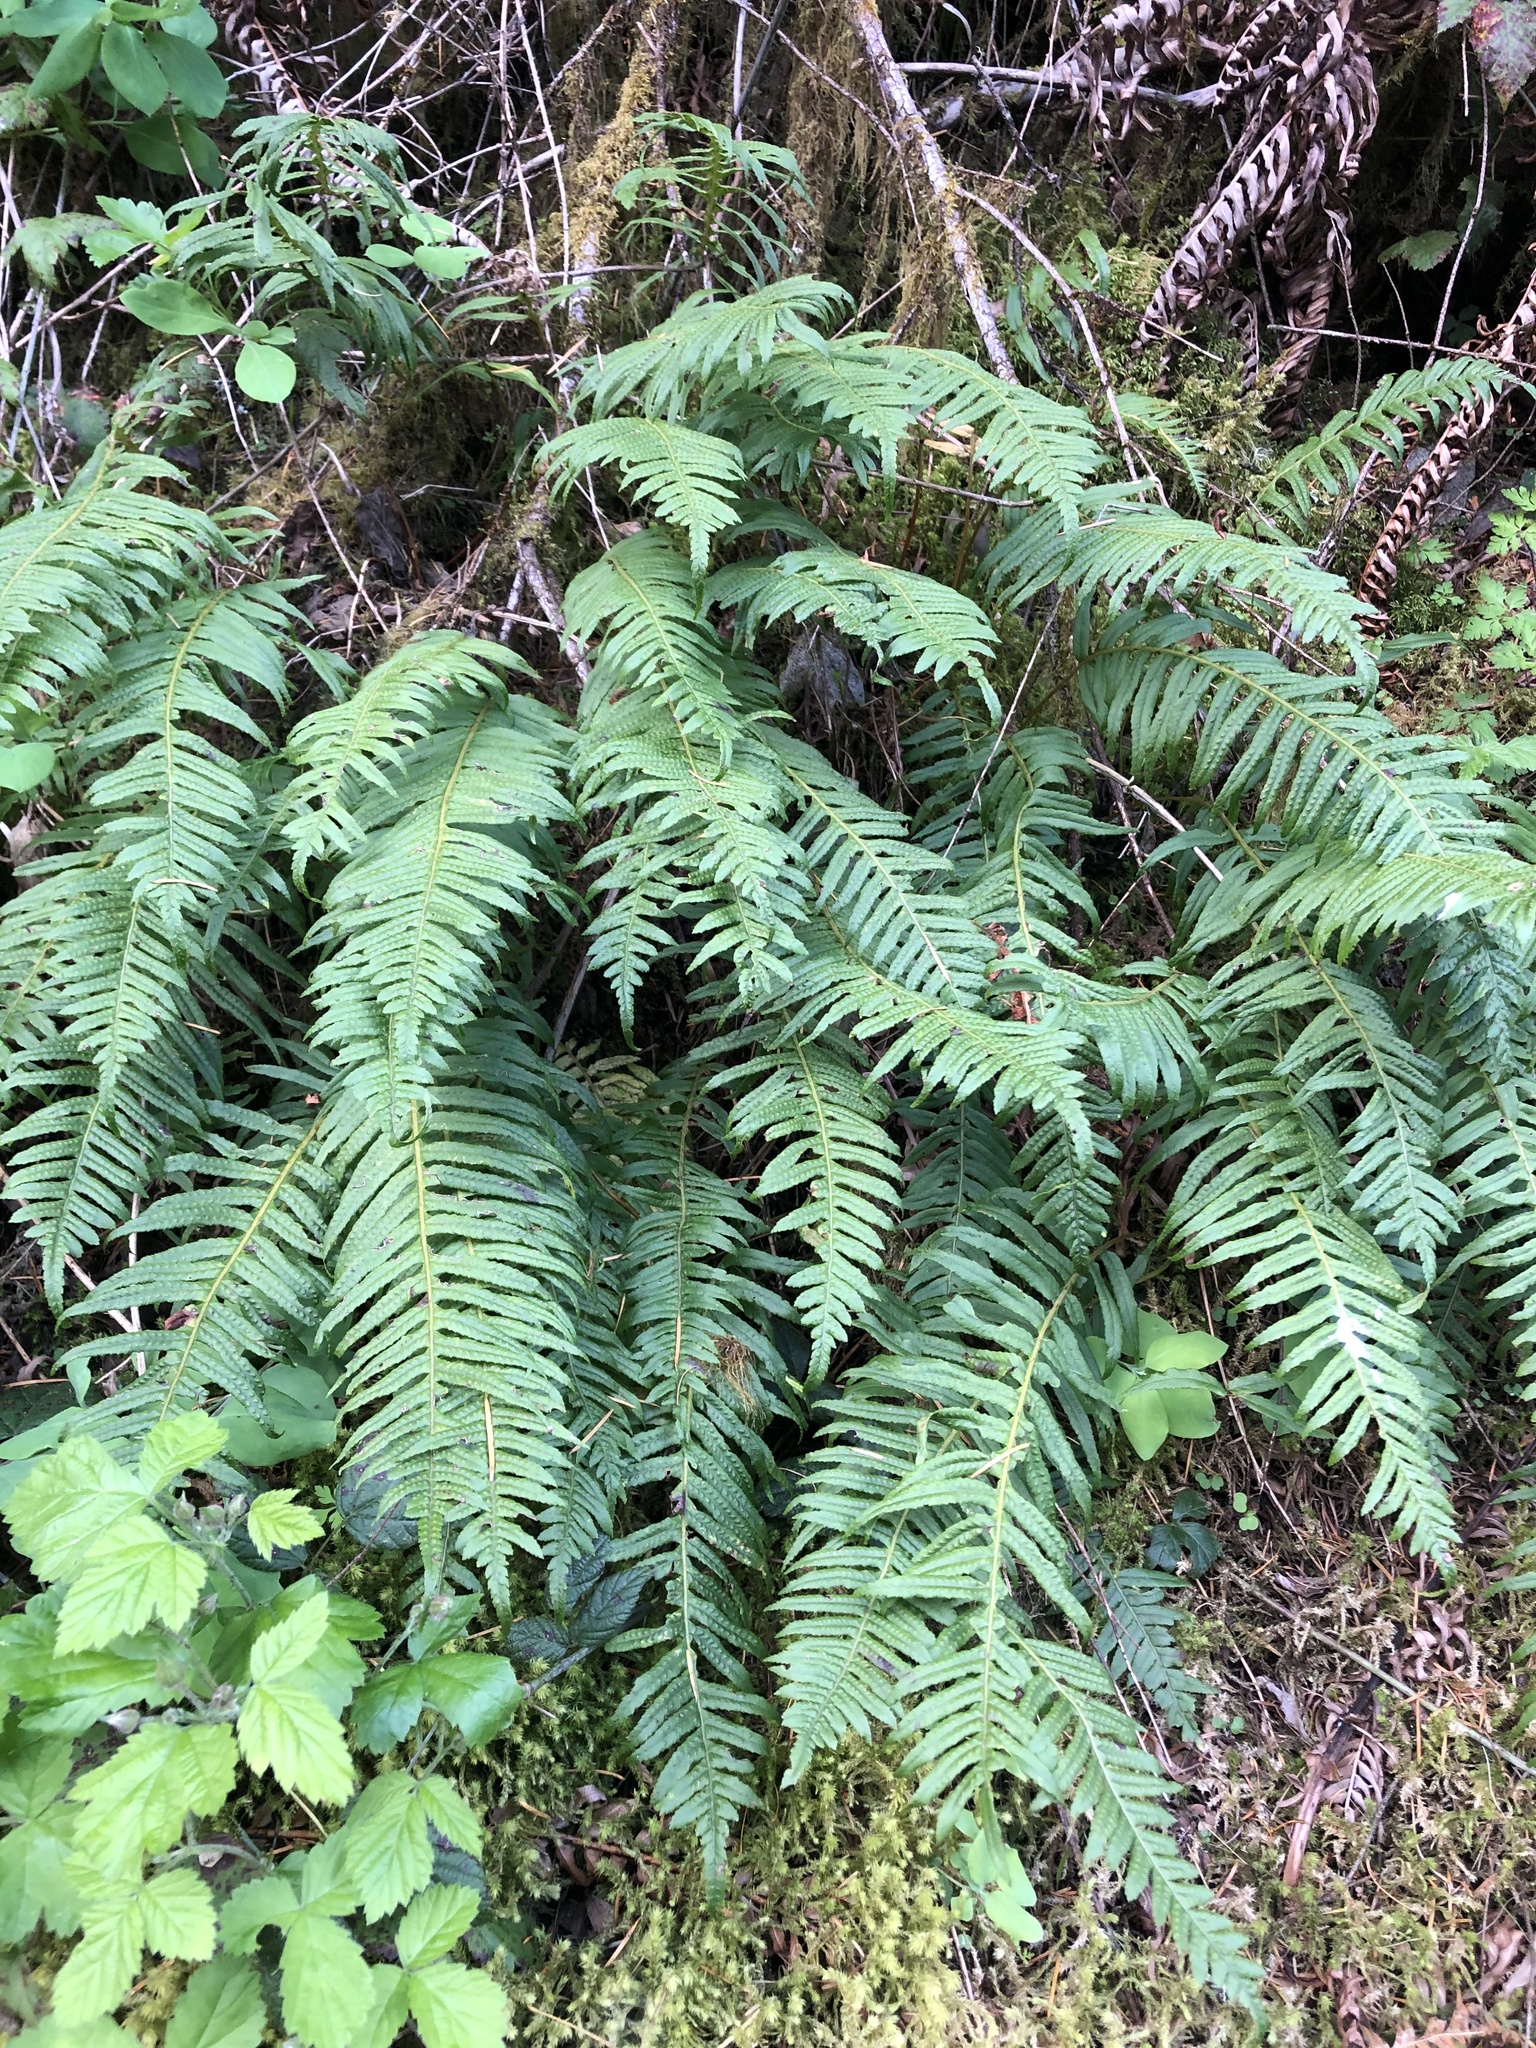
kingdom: Plantae
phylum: Tracheophyta
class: Polypodiopsida
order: Polypodiales
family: Polypodiaceae
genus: Polypodium
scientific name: Polypodium glycyrrhiza
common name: Licorice fern
